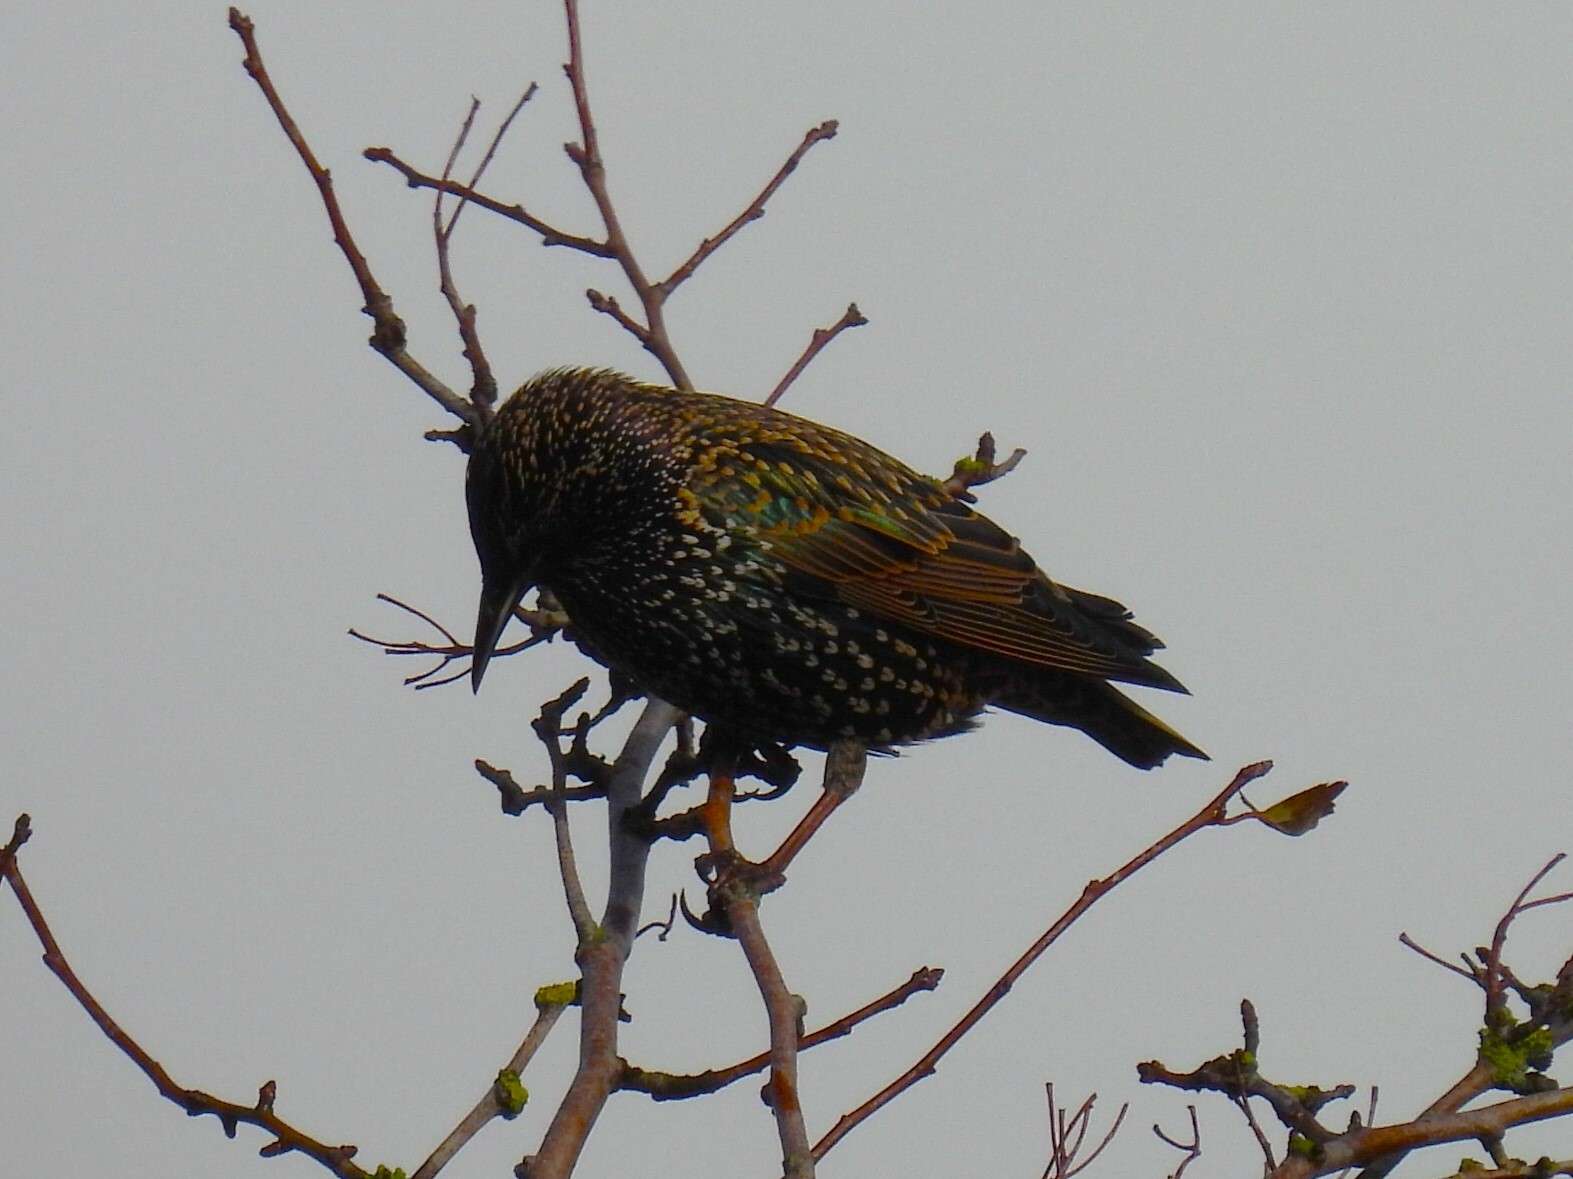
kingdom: Animalia
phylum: Chordata
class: Aves
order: Passeriformes
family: Sturnidae
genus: Sturnus
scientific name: Sturnus vulgaris
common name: Common starling
